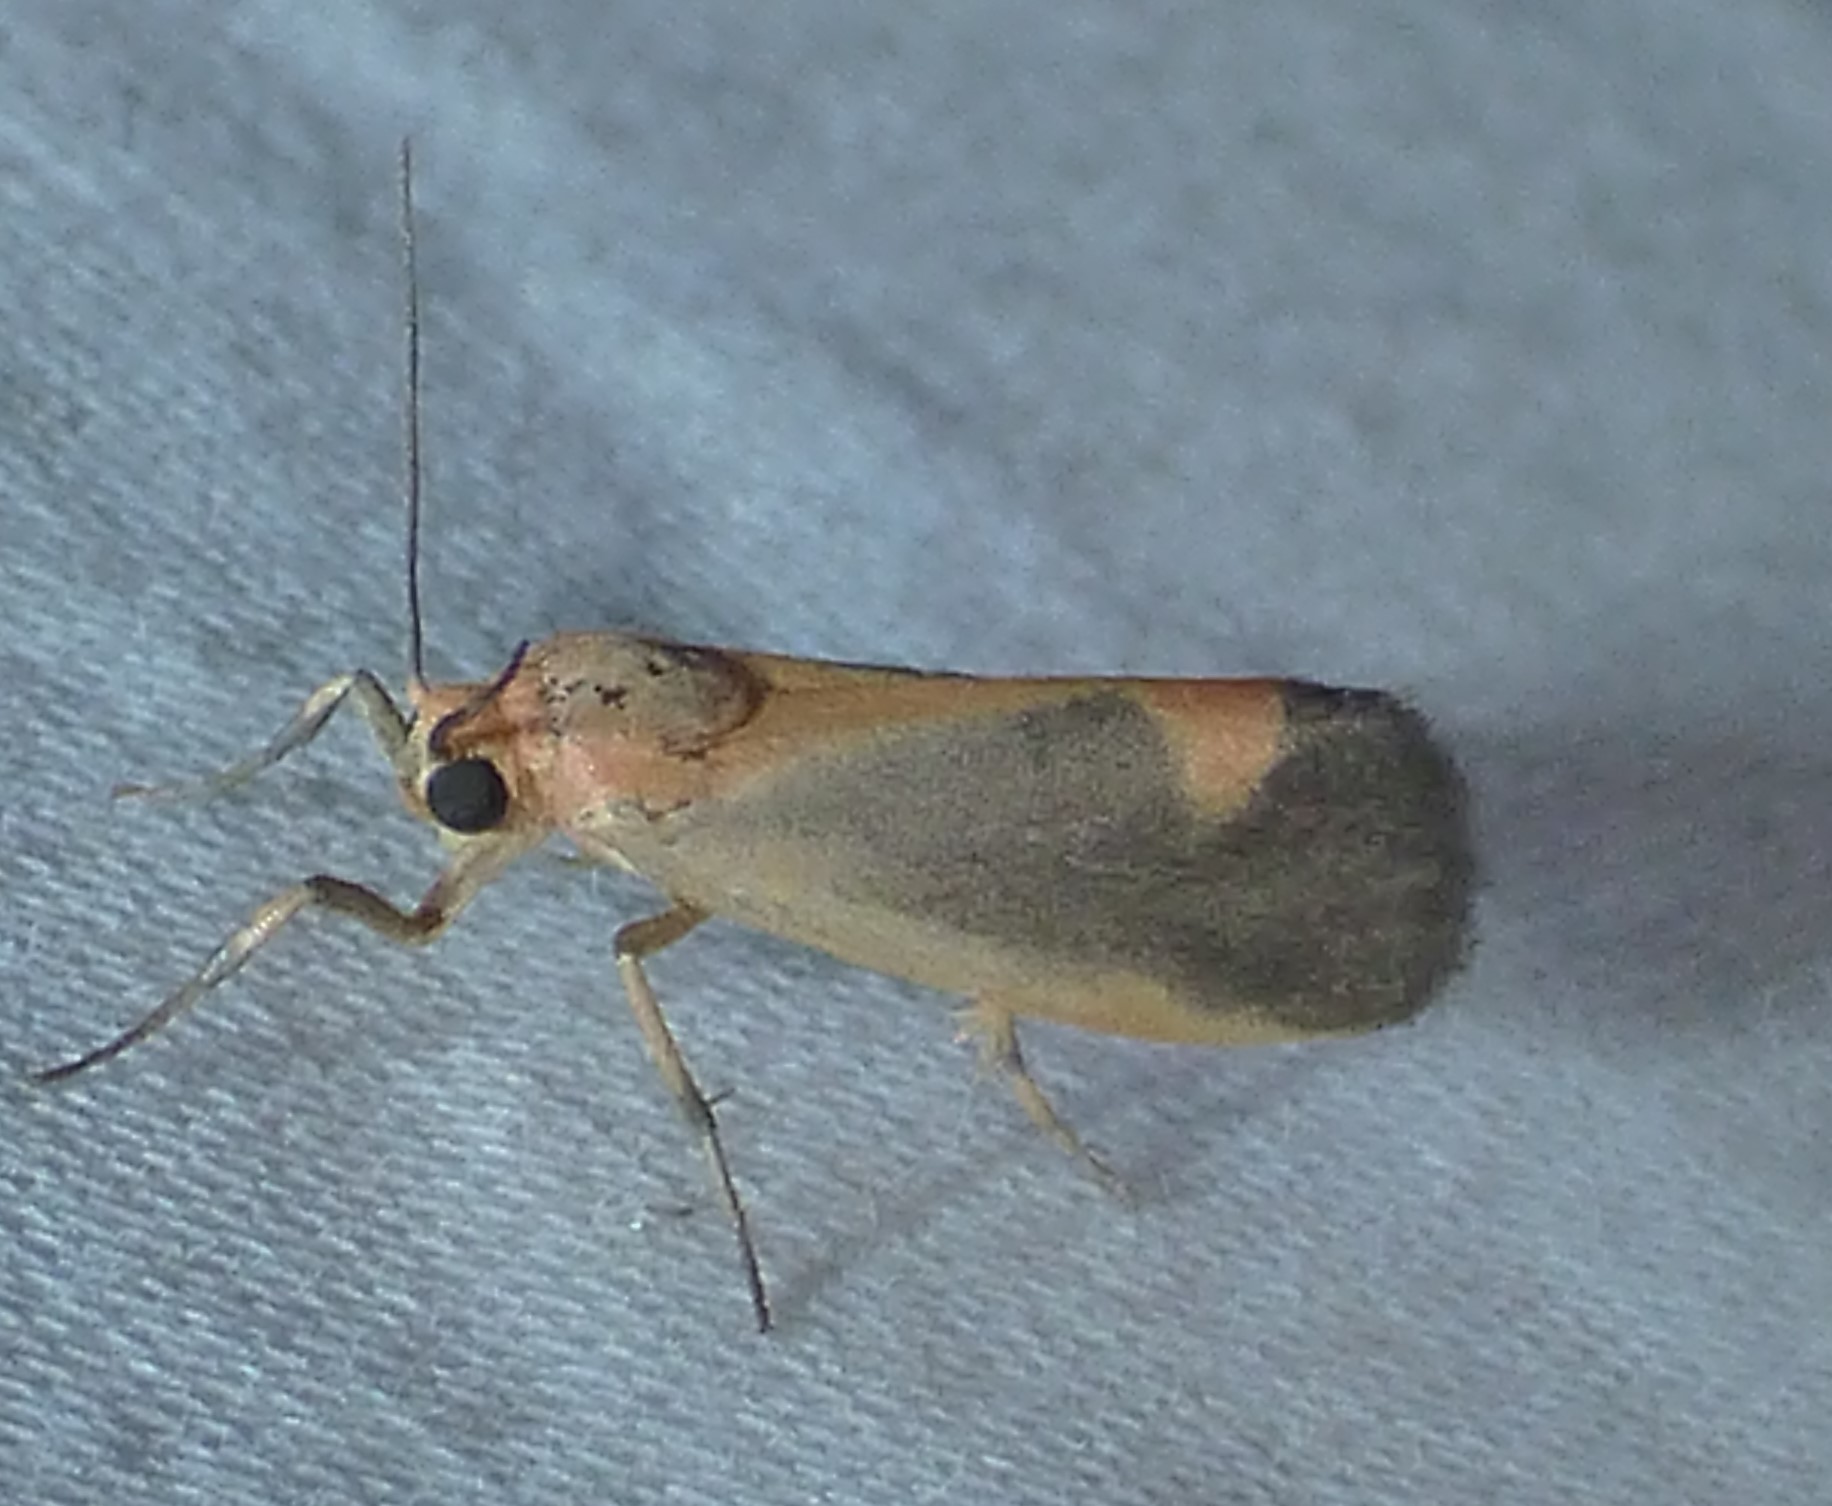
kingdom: Animalia
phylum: Arthropoda
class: Insecta
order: Lepidoptera
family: Erebidae
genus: Cisthene
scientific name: Cisthene plumbea
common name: Lead colored lichen moth
